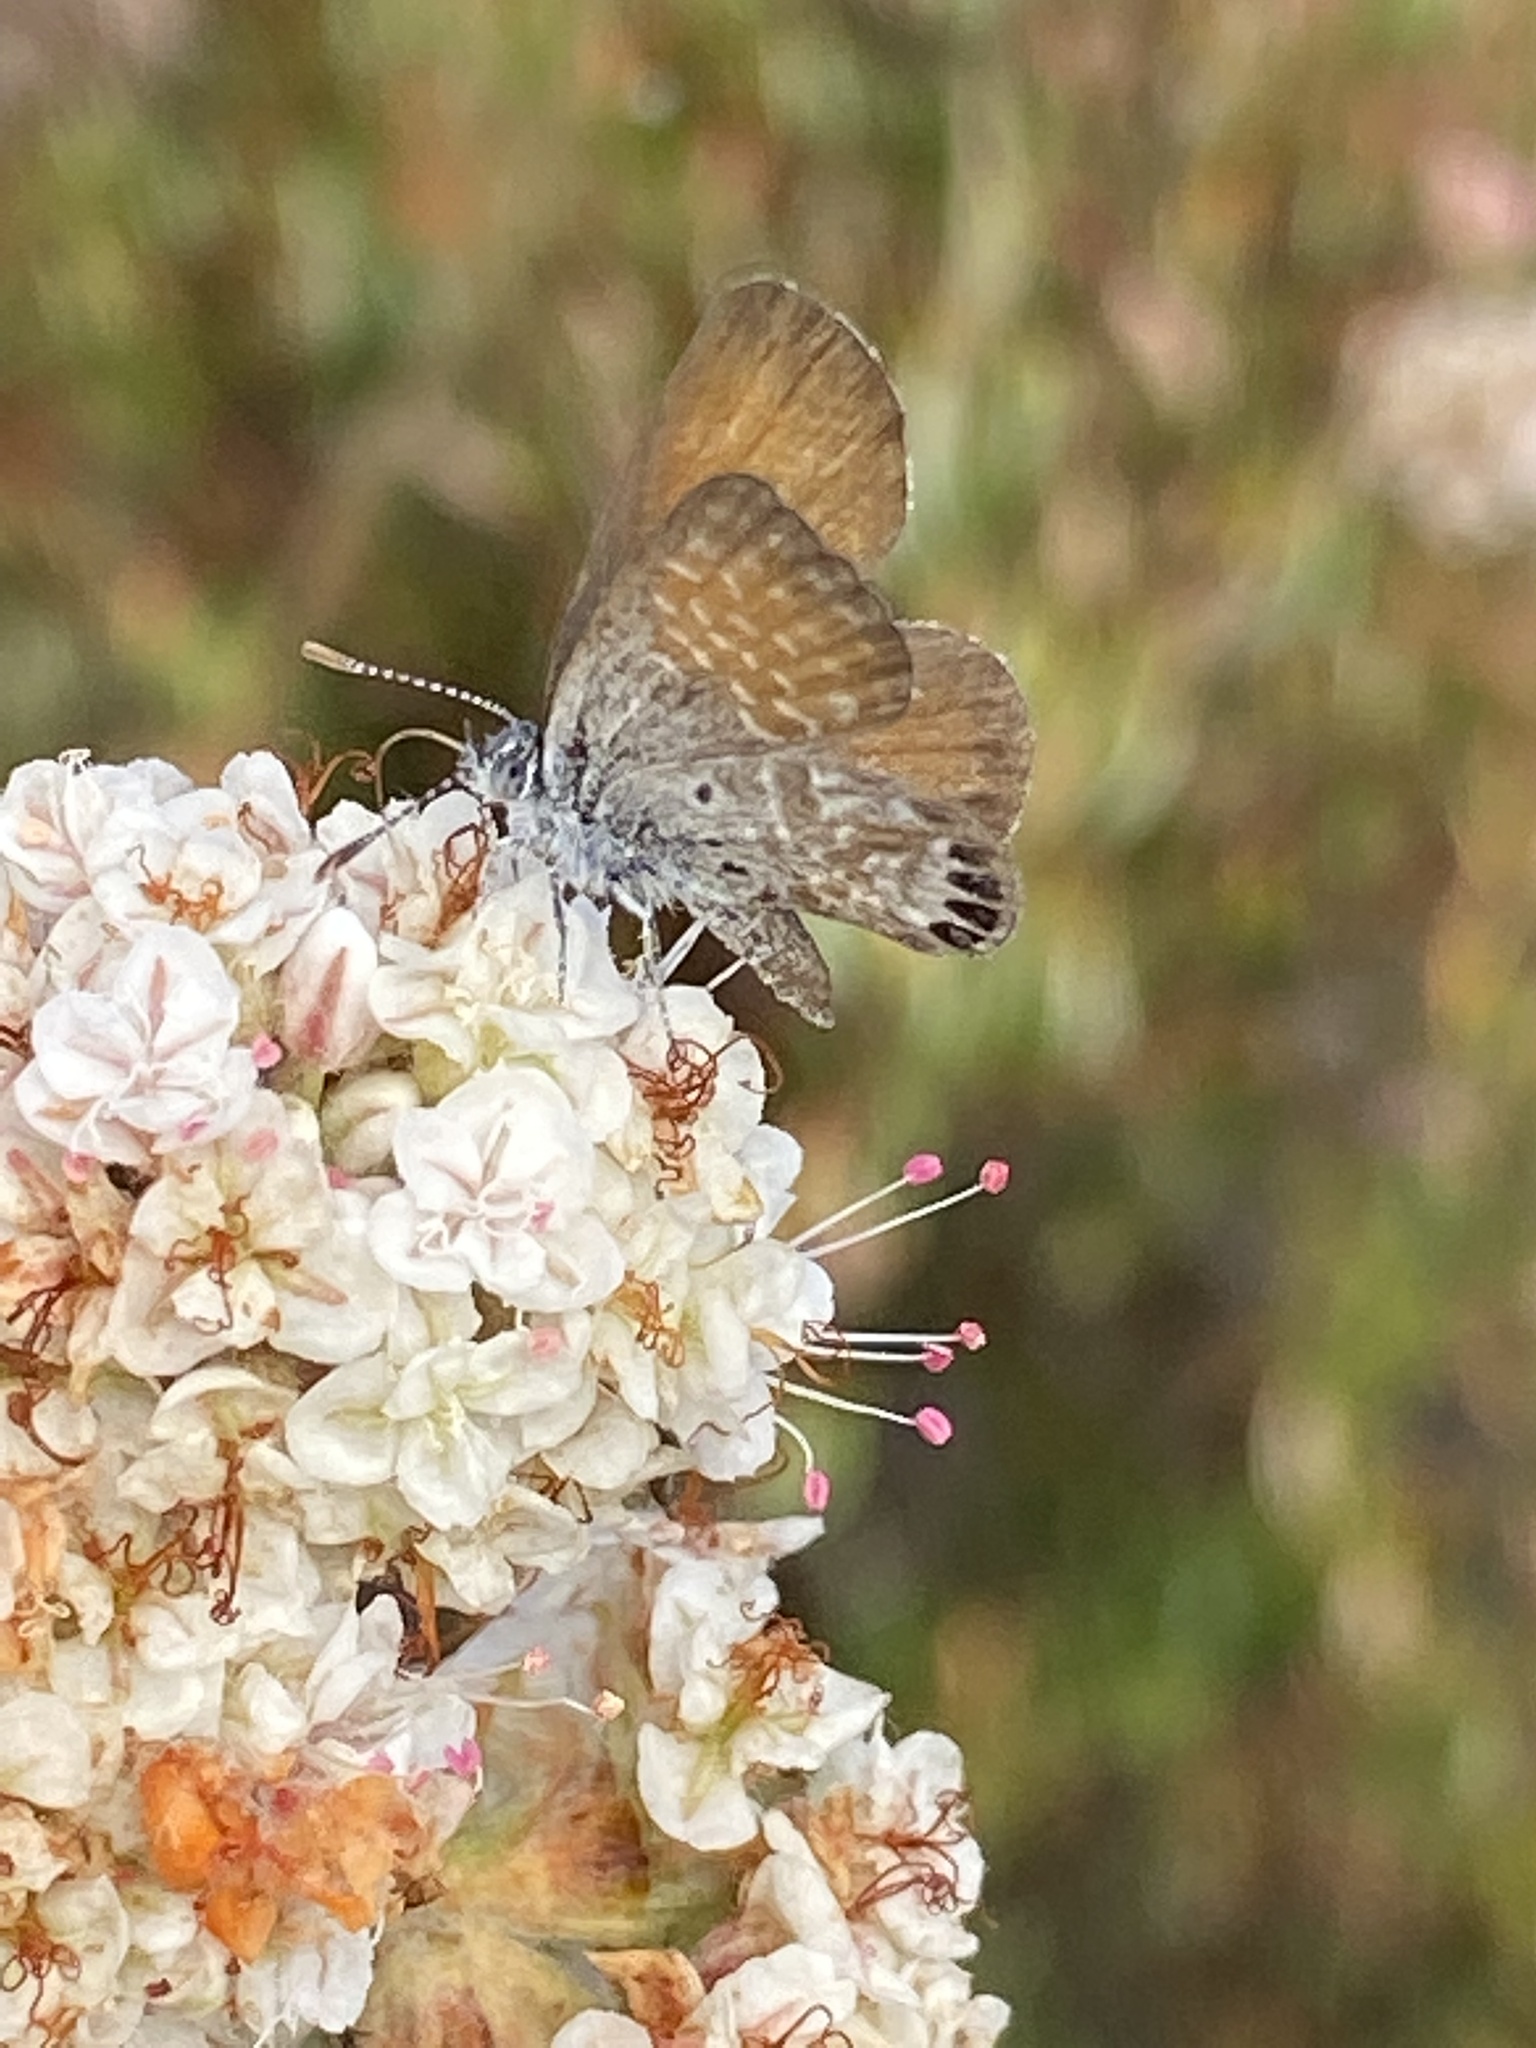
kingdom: Animalia
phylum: Arthropoda
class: Insecta
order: Lepidoptera
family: Lycaenidae
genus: Brephidium
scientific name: Brephidium exilis
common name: Pygmy blue
